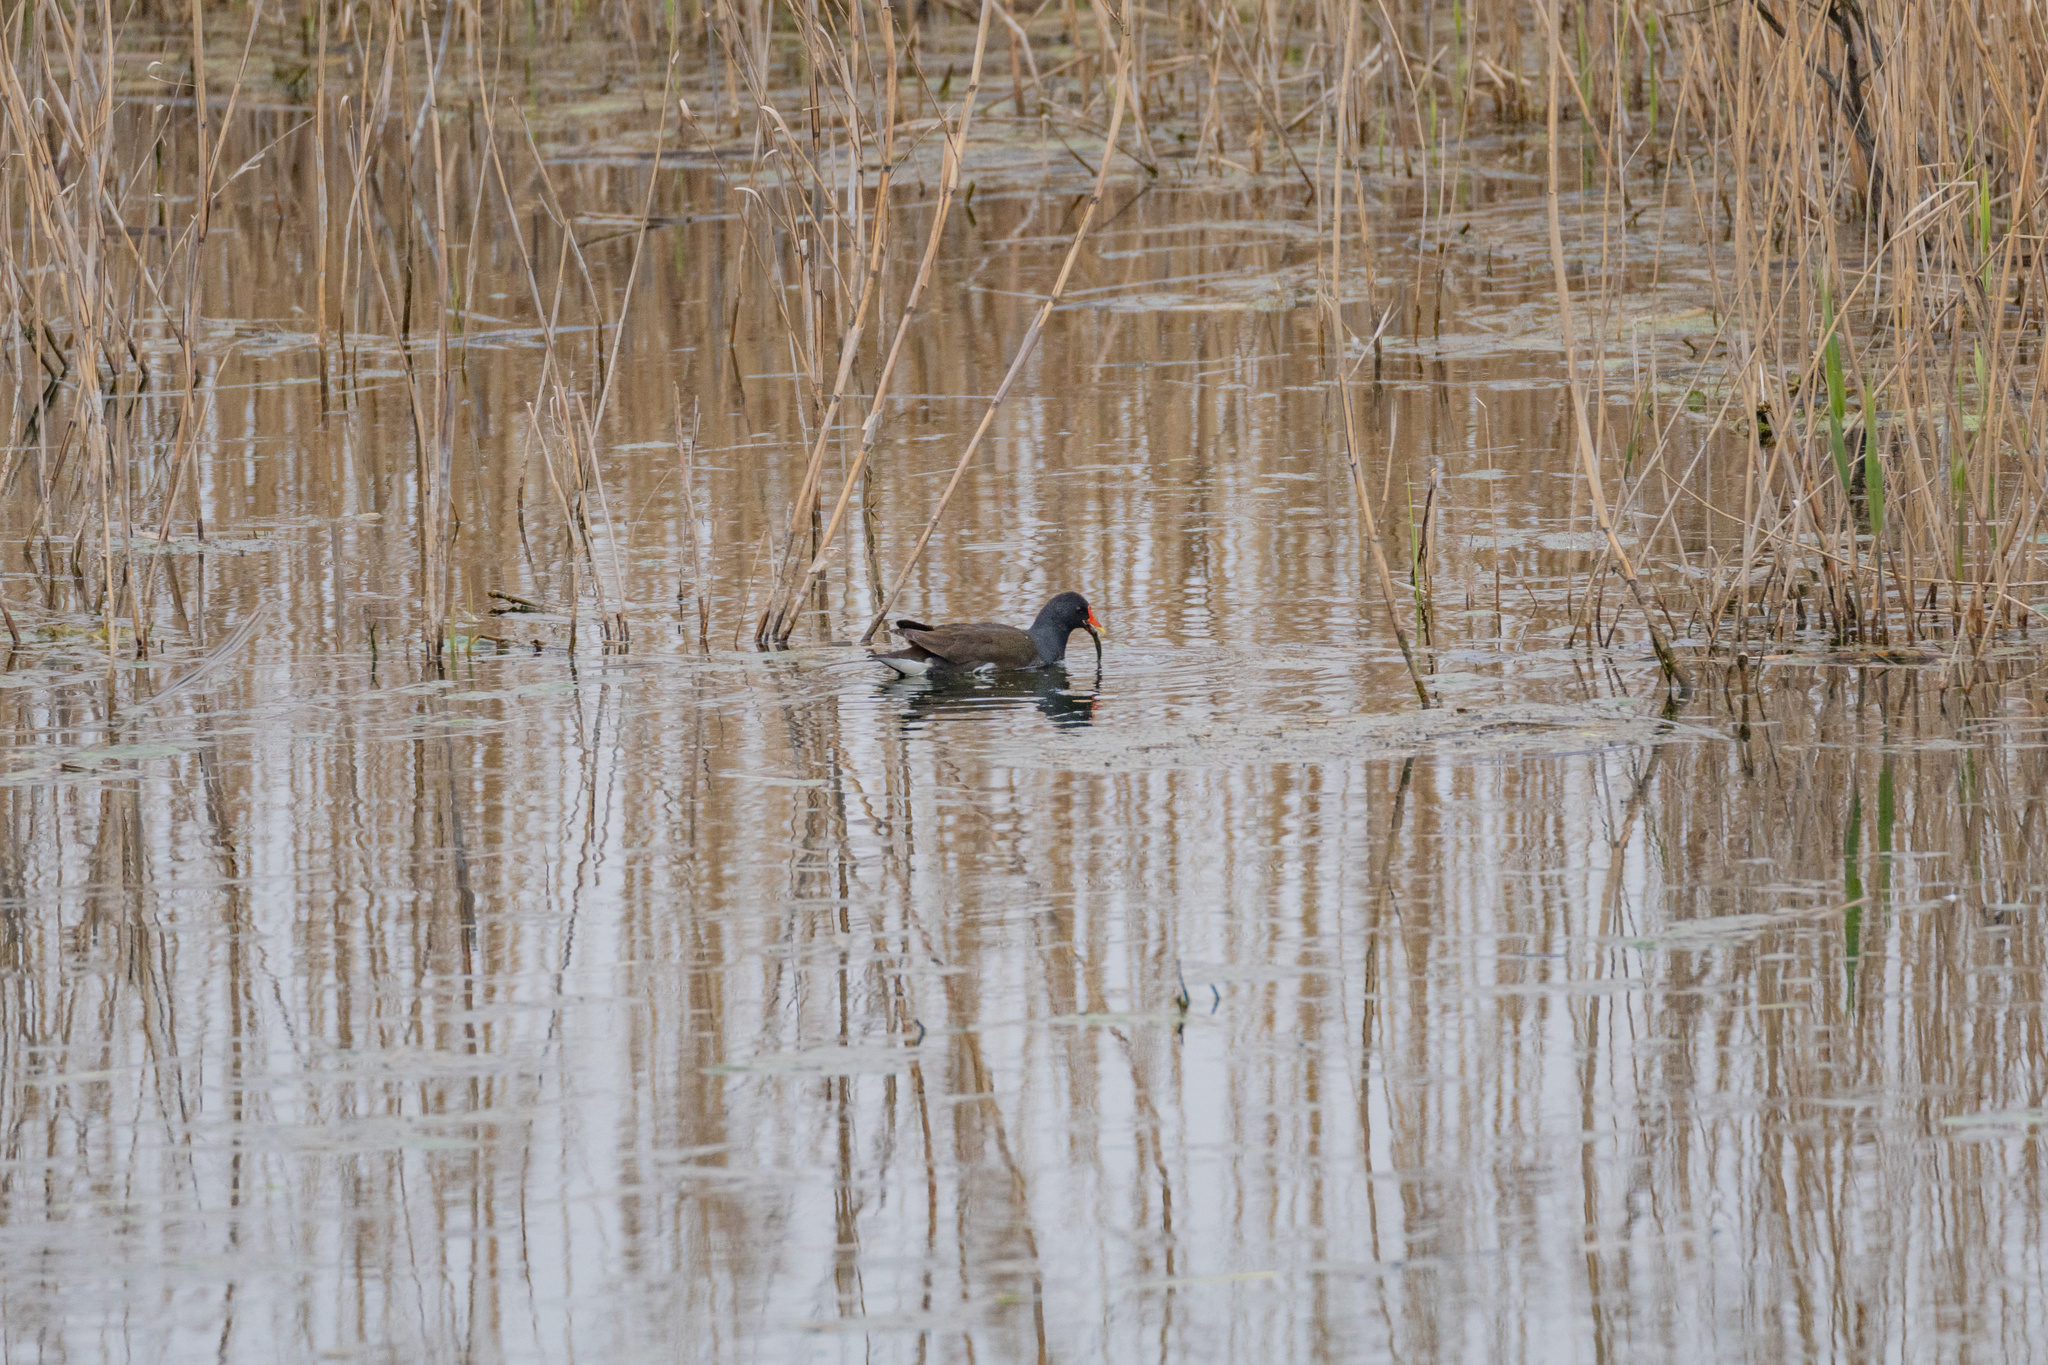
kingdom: Animalia
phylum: Chordata
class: Aves
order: Gruiformes
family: Rallidae
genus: Gallinula
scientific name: Gallinula chloropus
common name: Common moorhen
